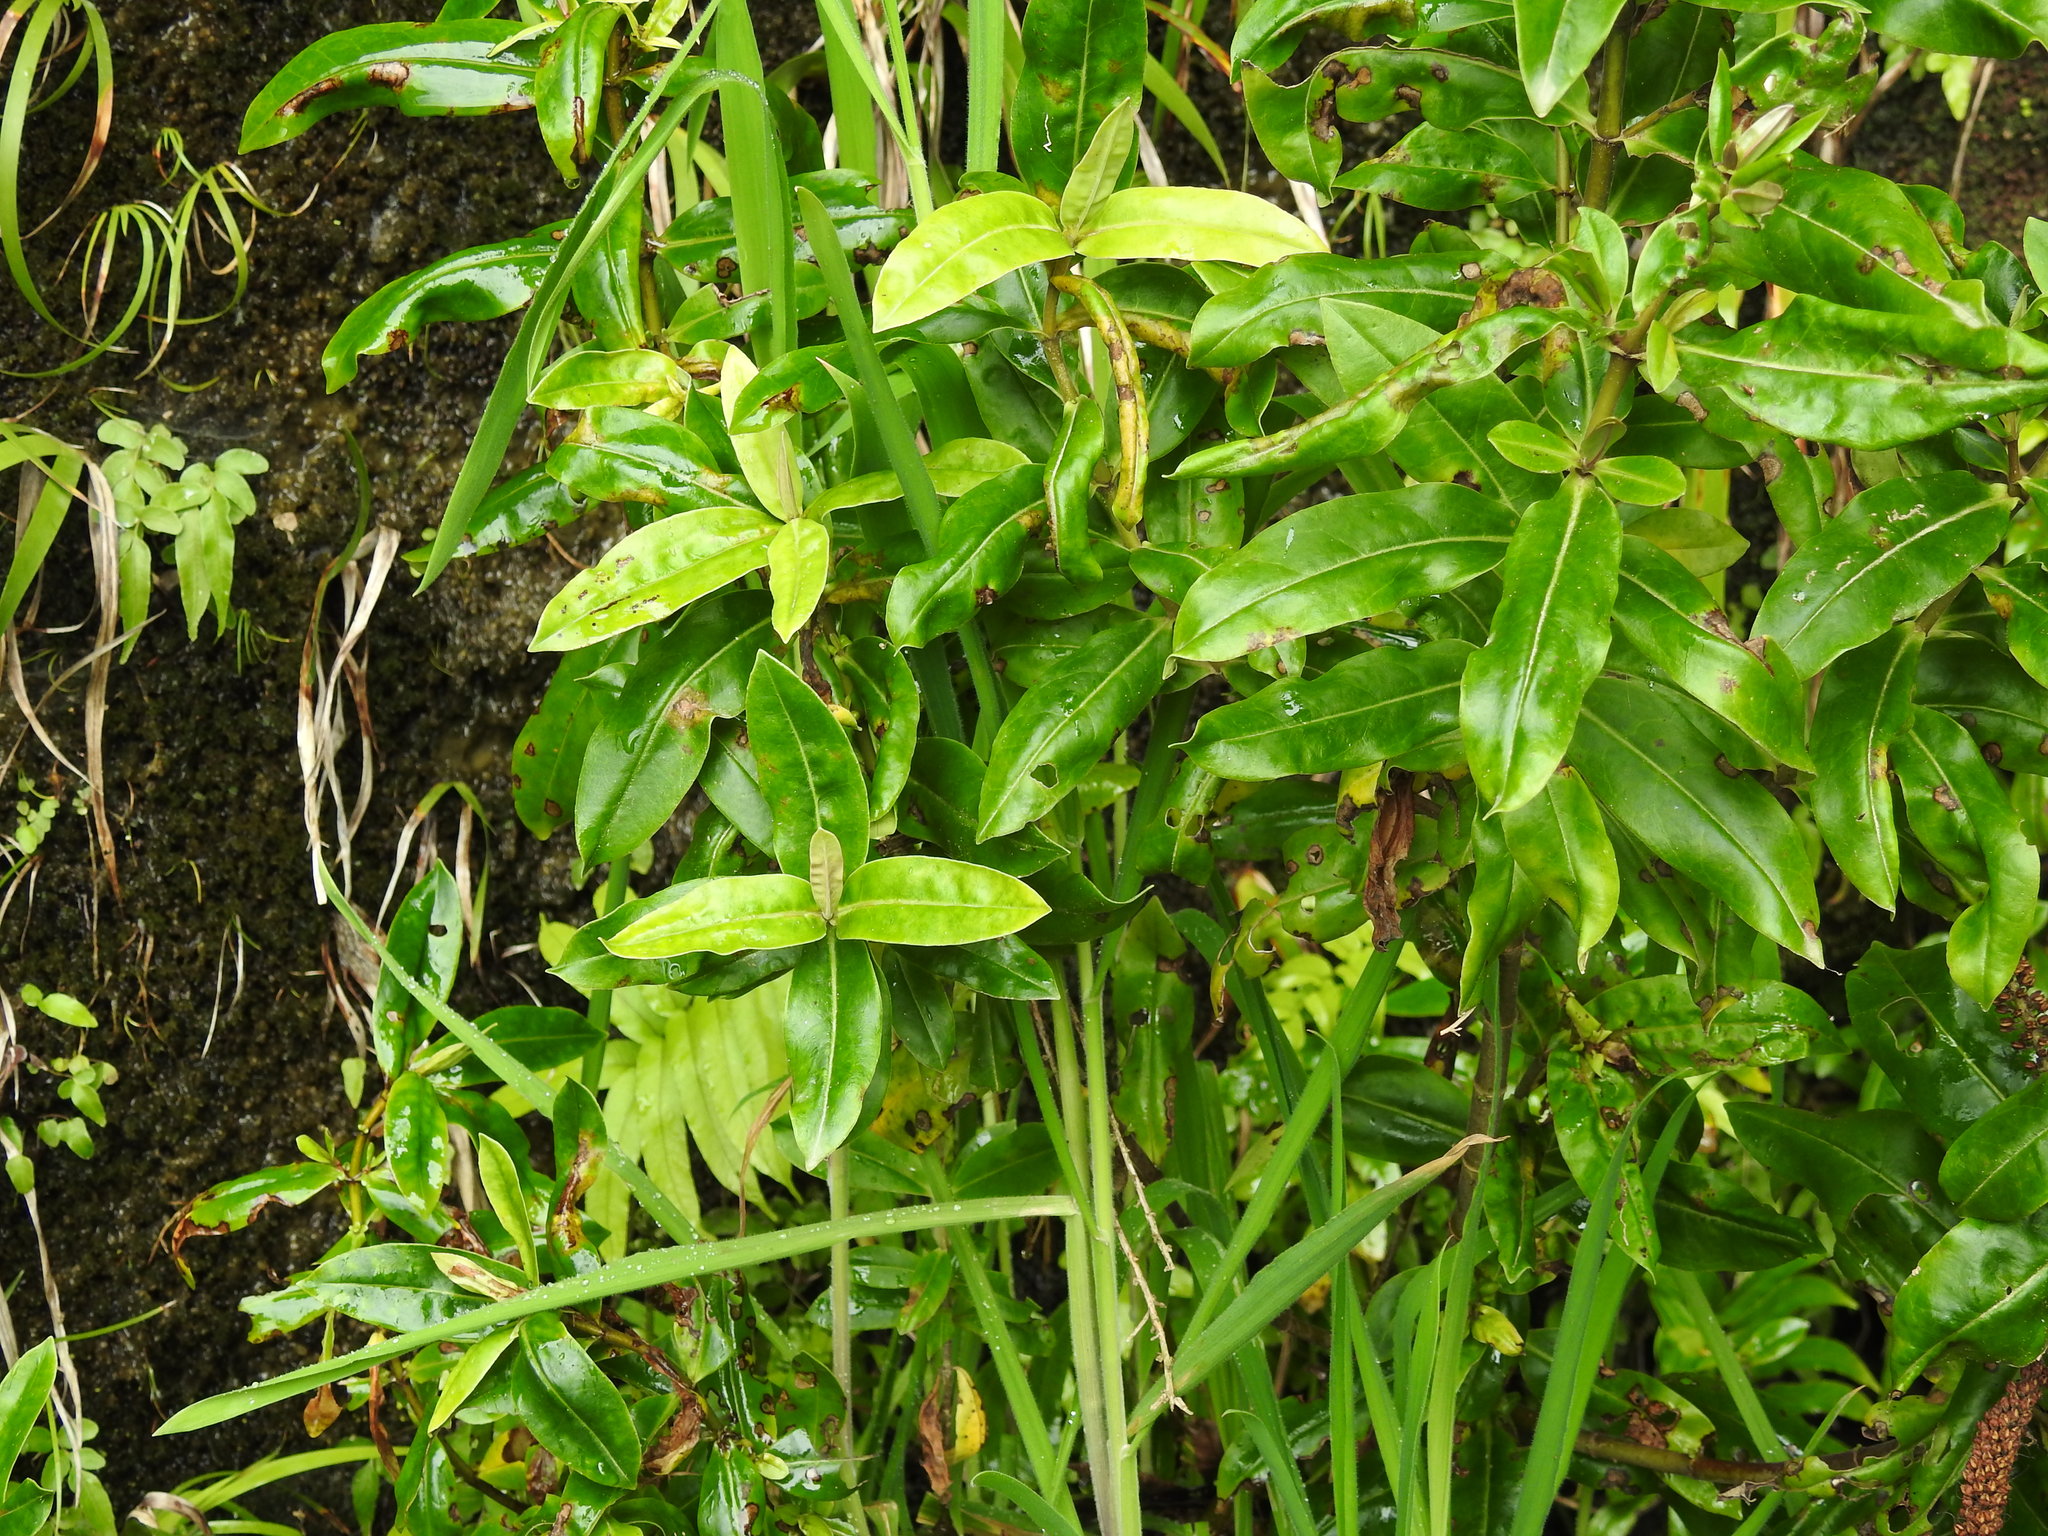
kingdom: Plantae
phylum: Tracheophyta
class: Magnoliopsida
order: Lamiales
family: Plantaginaceae
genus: Veronica
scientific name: Veronica stricta
